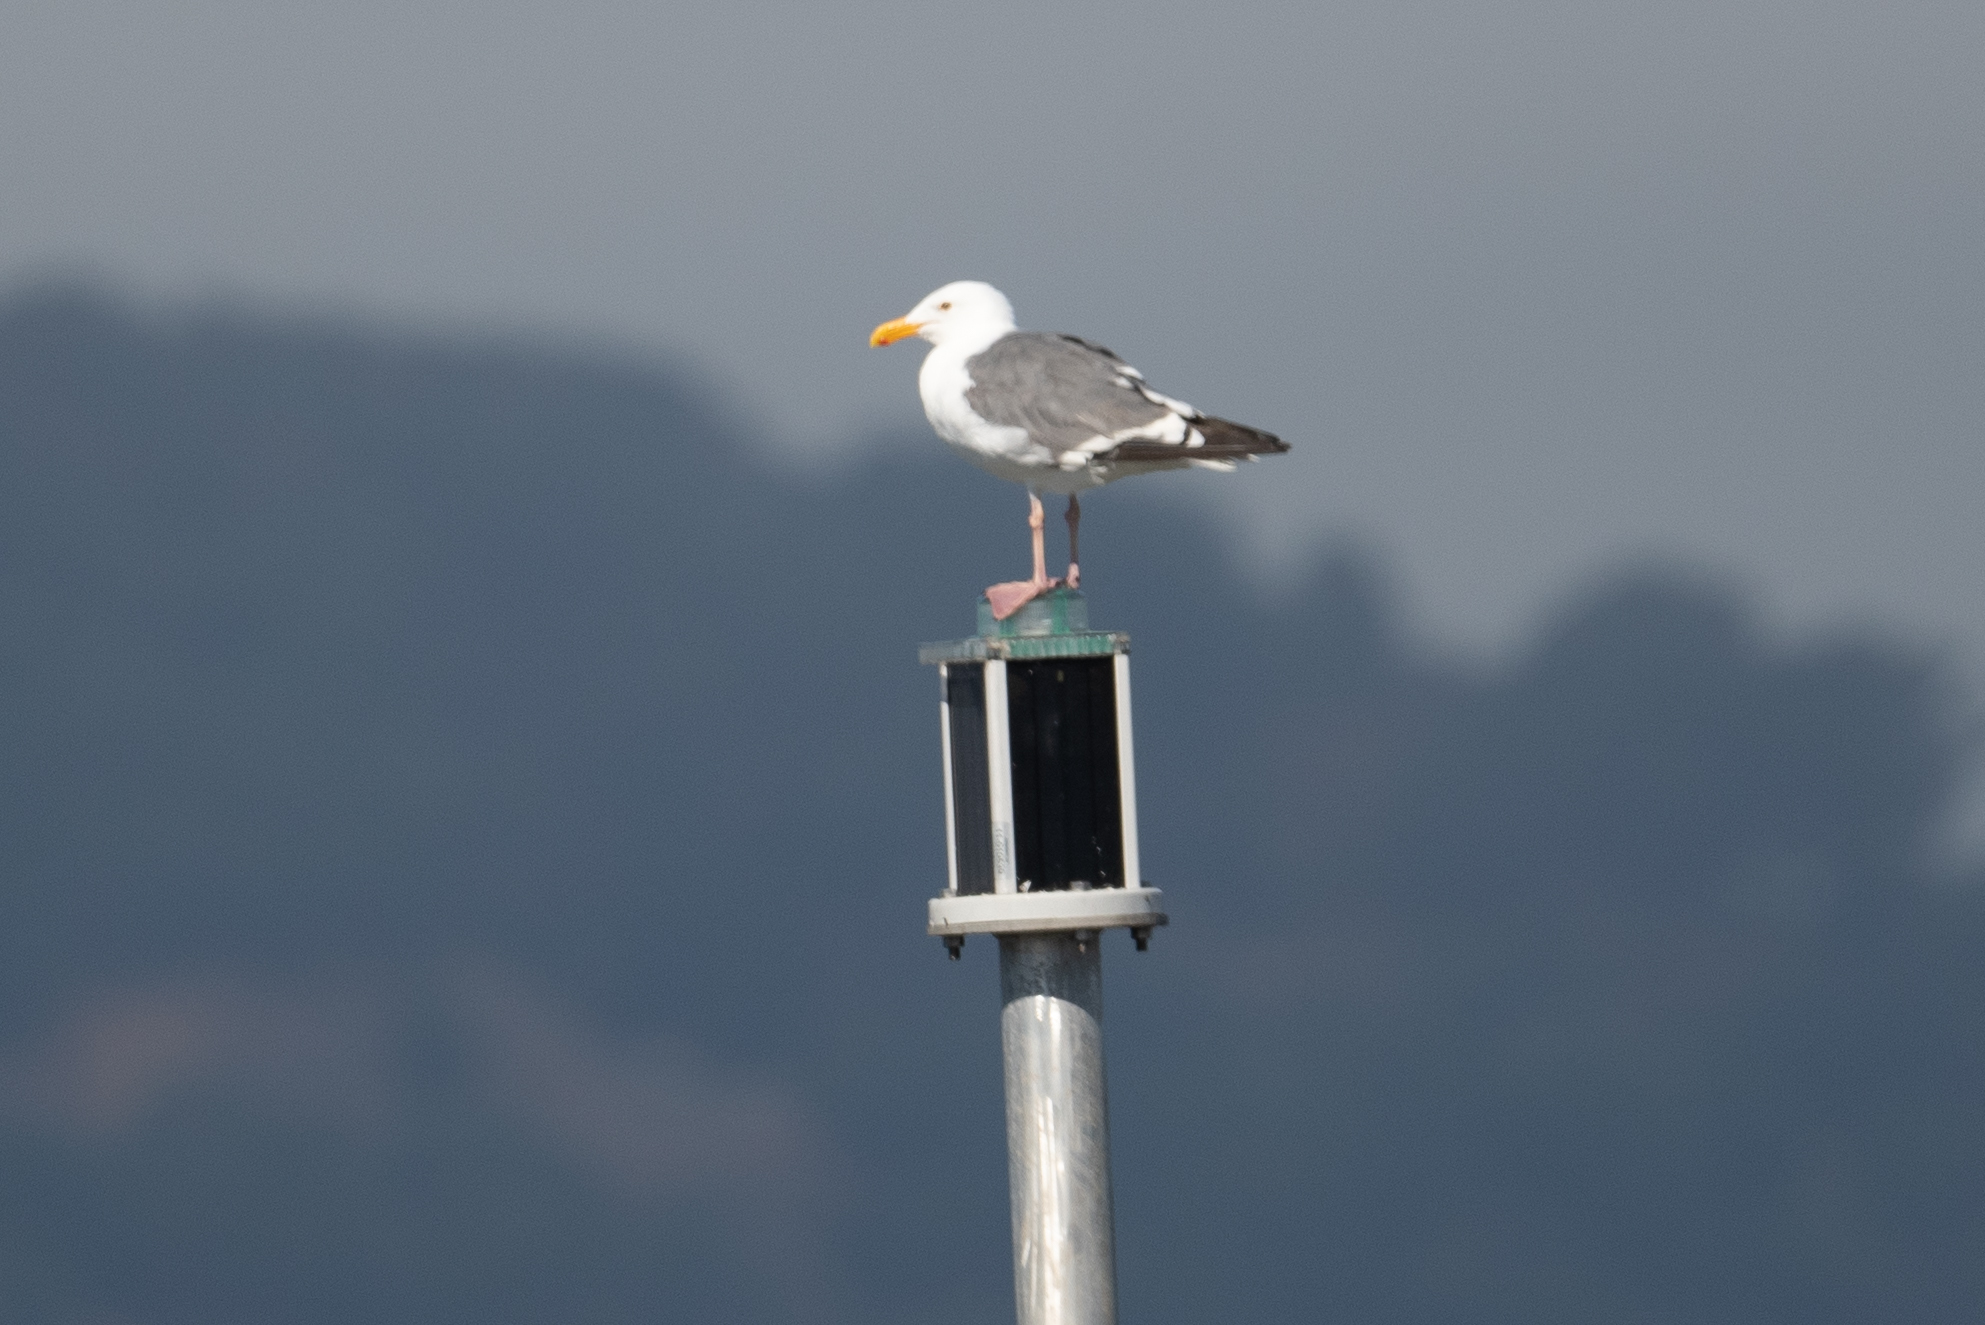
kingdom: Animalia
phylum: Chordata
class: Aves
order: Charadriiformes
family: Laridae
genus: Larus
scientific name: Larus occidentalis
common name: Western gull
